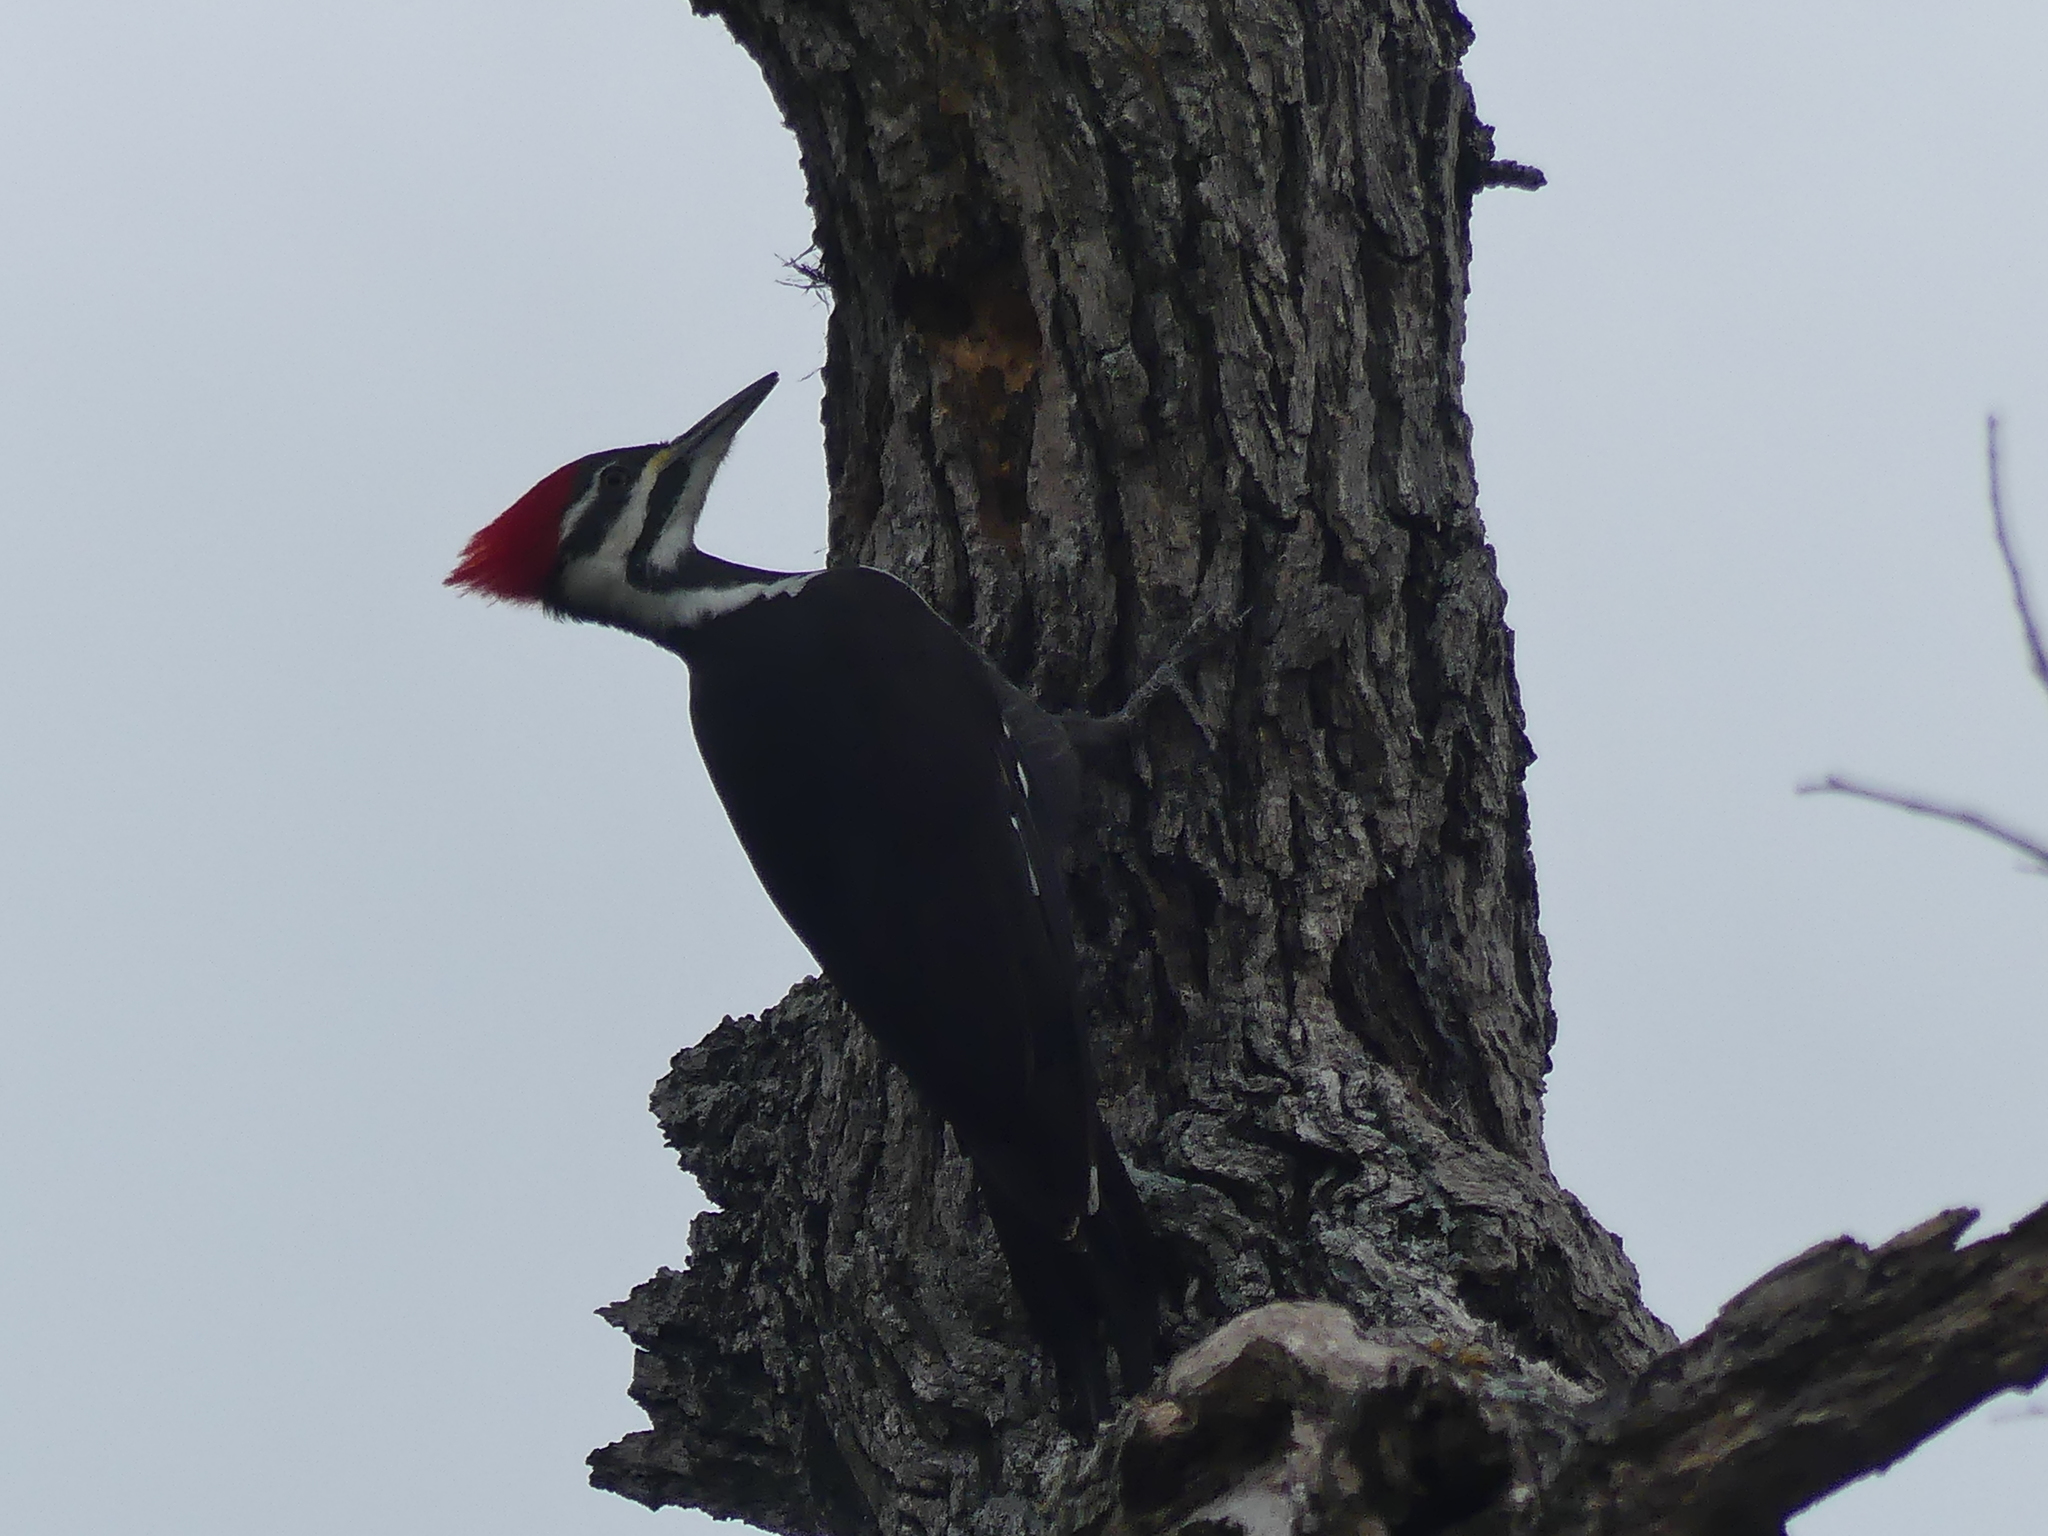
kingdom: Animalia
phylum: Chordata
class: Aves
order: Piciformes
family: Picidae
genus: Dryocopus
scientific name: Dryocopus pileatus
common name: Pileated woodpecker
